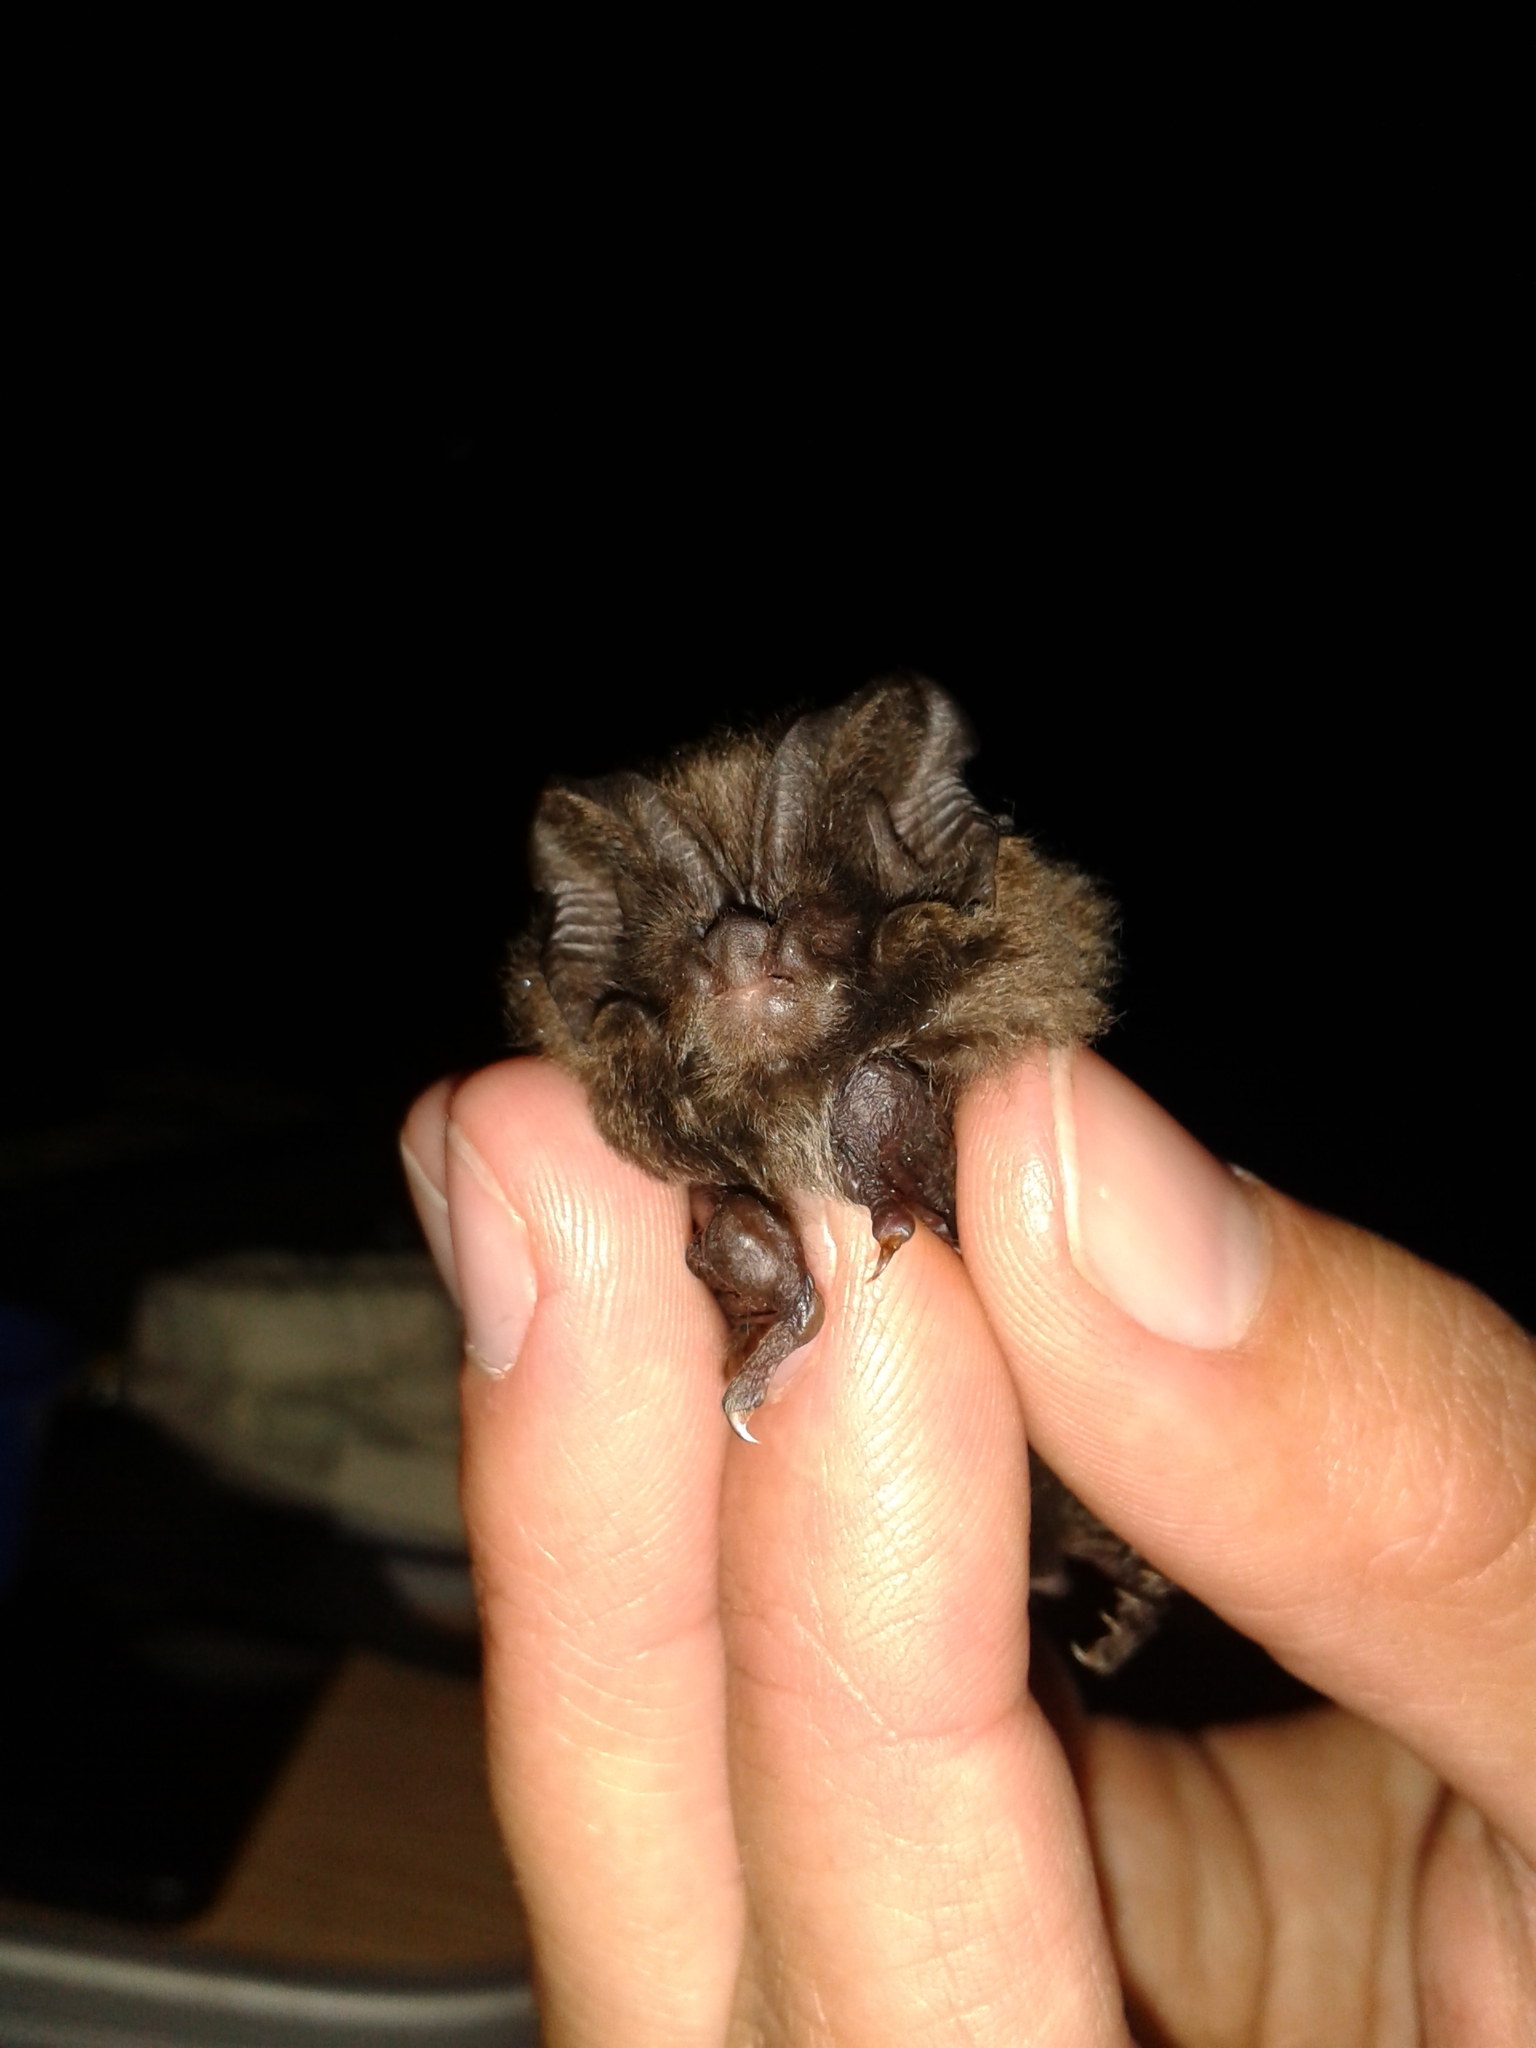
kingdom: Animalia
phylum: Chordata
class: Mammalia
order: Chiroptera
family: Vespertilionidae
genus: Barbastella
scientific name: Barbastella barbastellus
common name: Western barbastelle
